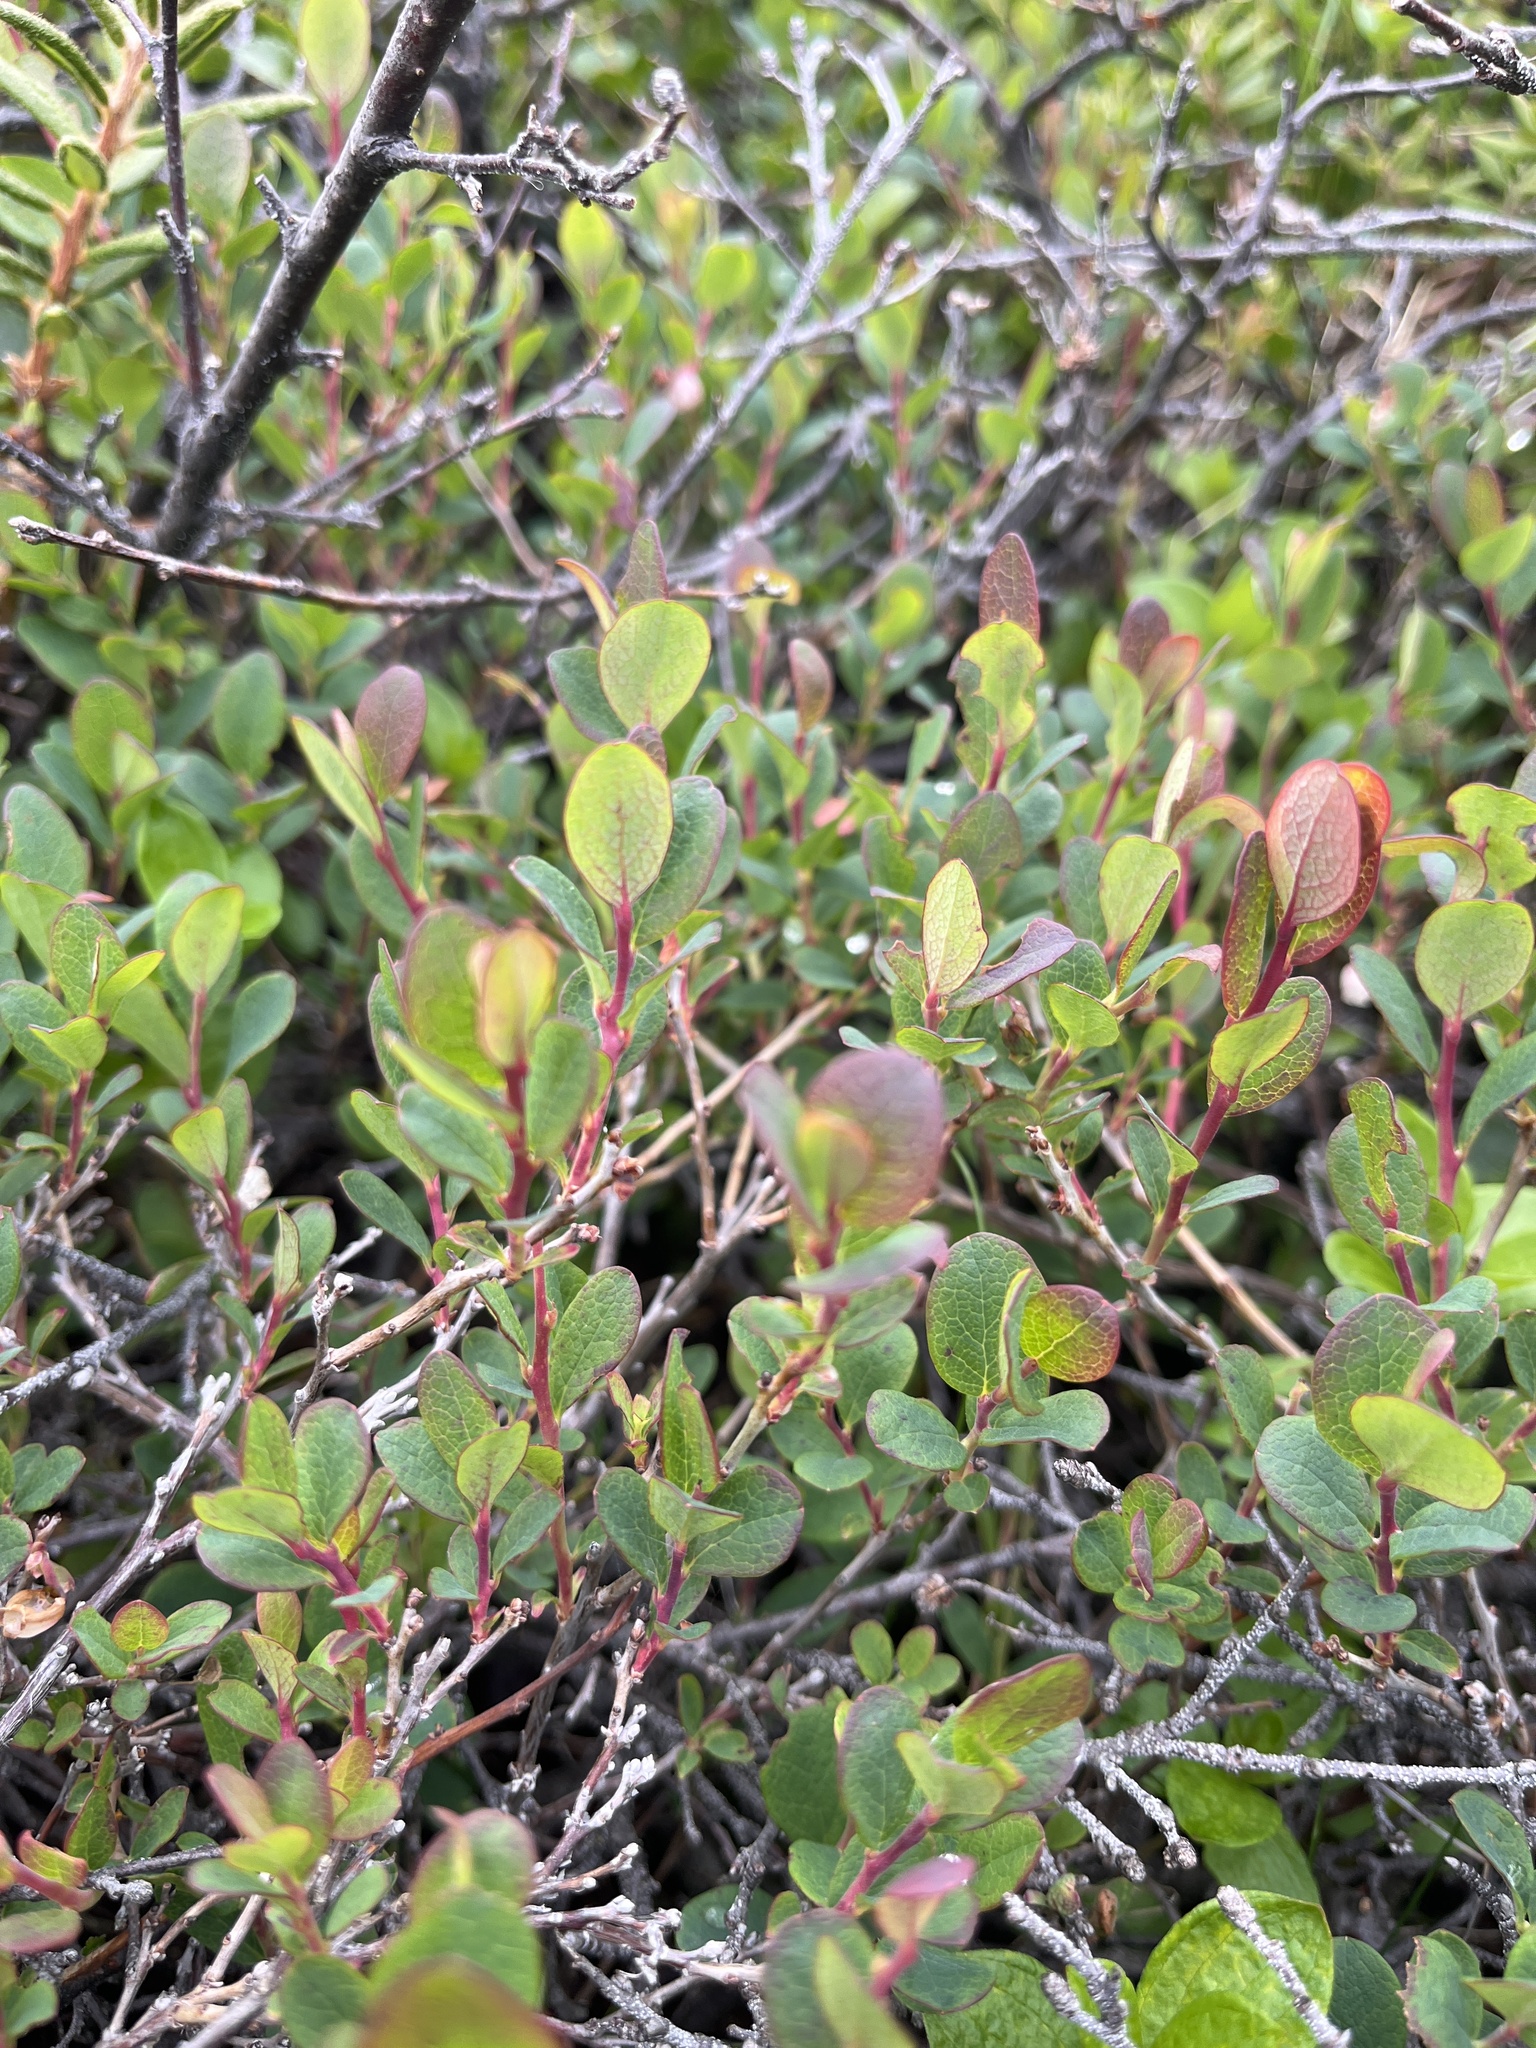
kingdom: Plantae
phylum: Tracheophyta
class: Magnoliopsida
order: Ericales
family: Ericaceae
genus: Vaccinium
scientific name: Vaccinium uliginosum
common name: Bog bilberry
